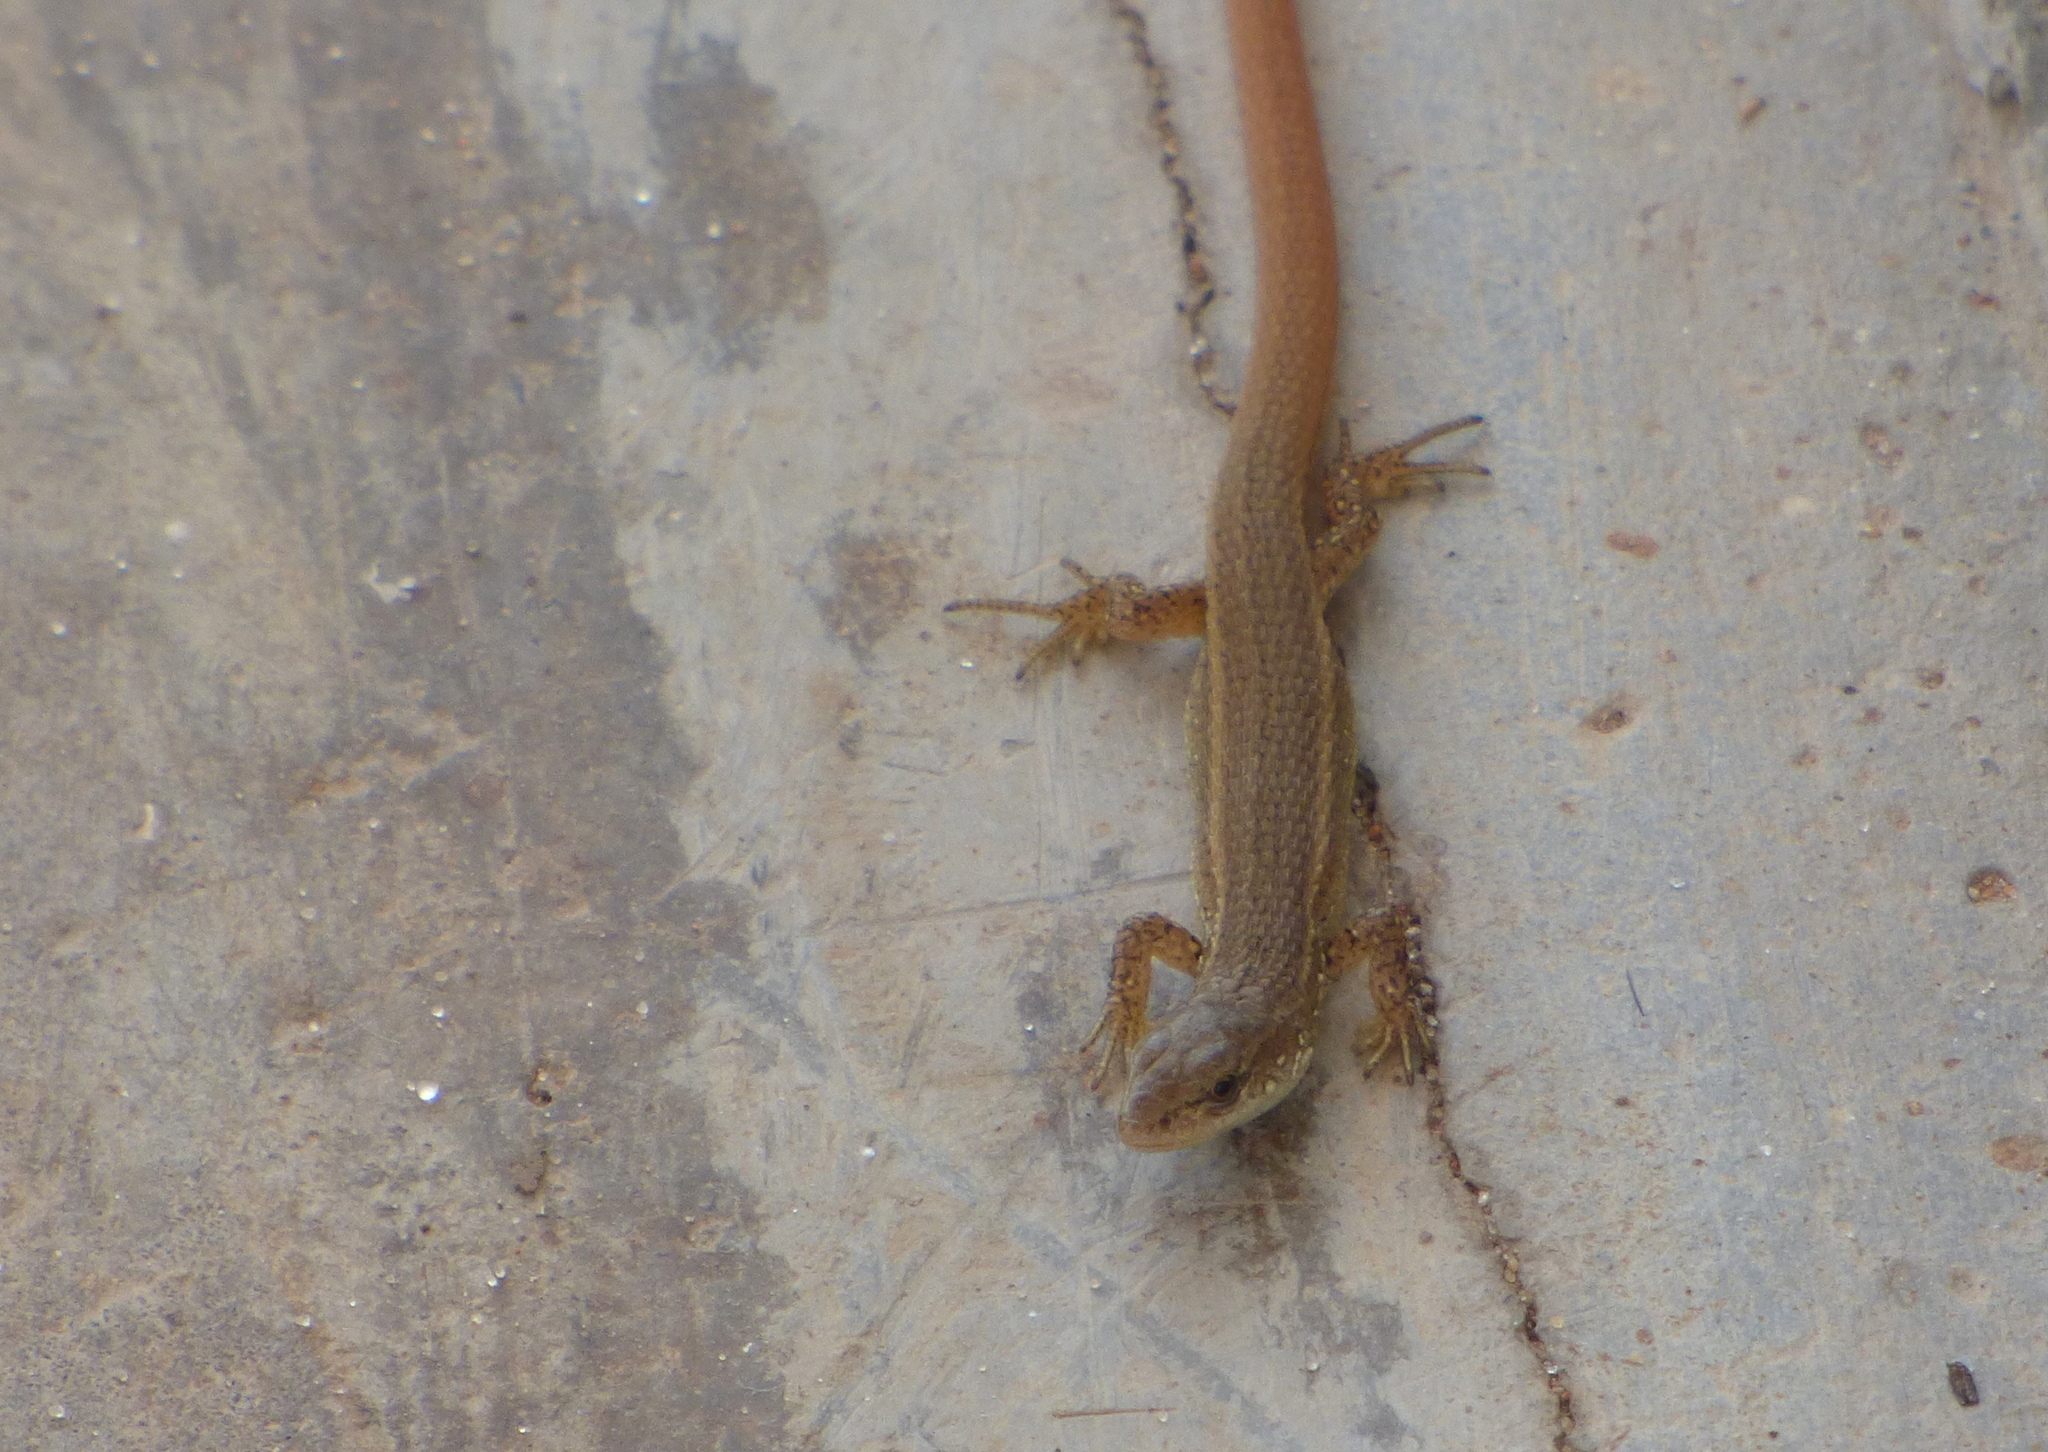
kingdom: Animalia
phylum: Chordata
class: Squamata
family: Gymnophthalmidae
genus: Cercosaura
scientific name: Cercosaura schreibersii
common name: Schreibers' many-fingered teiid
